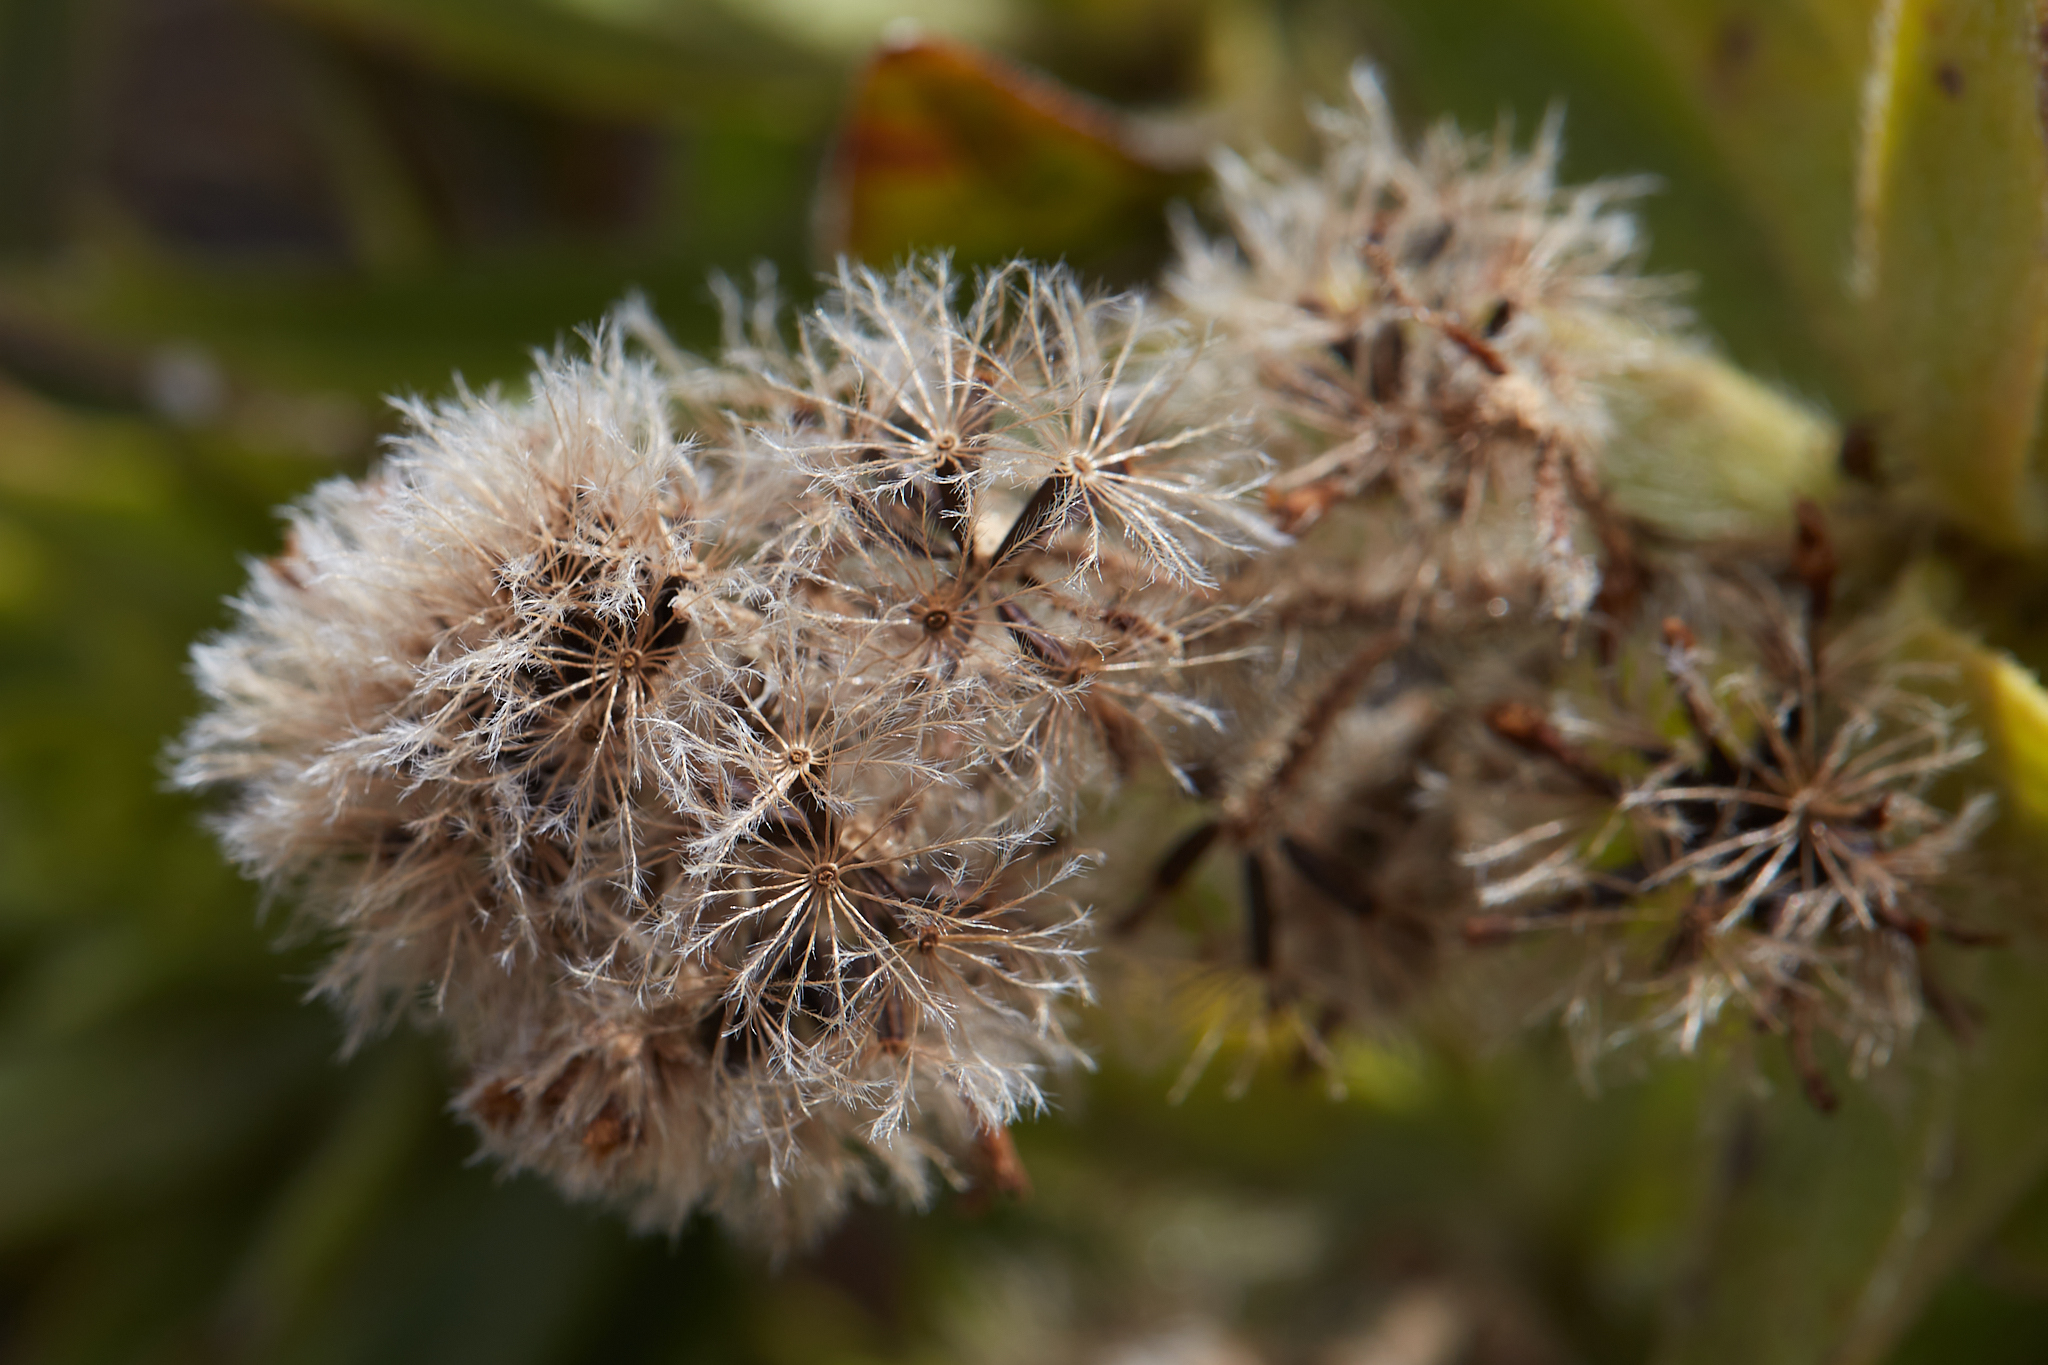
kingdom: Plantae
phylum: Tracheophyta
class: Magnoliopsida
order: Asterales
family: Asteraceae
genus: Dubautia
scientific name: Dubautia menziesii
